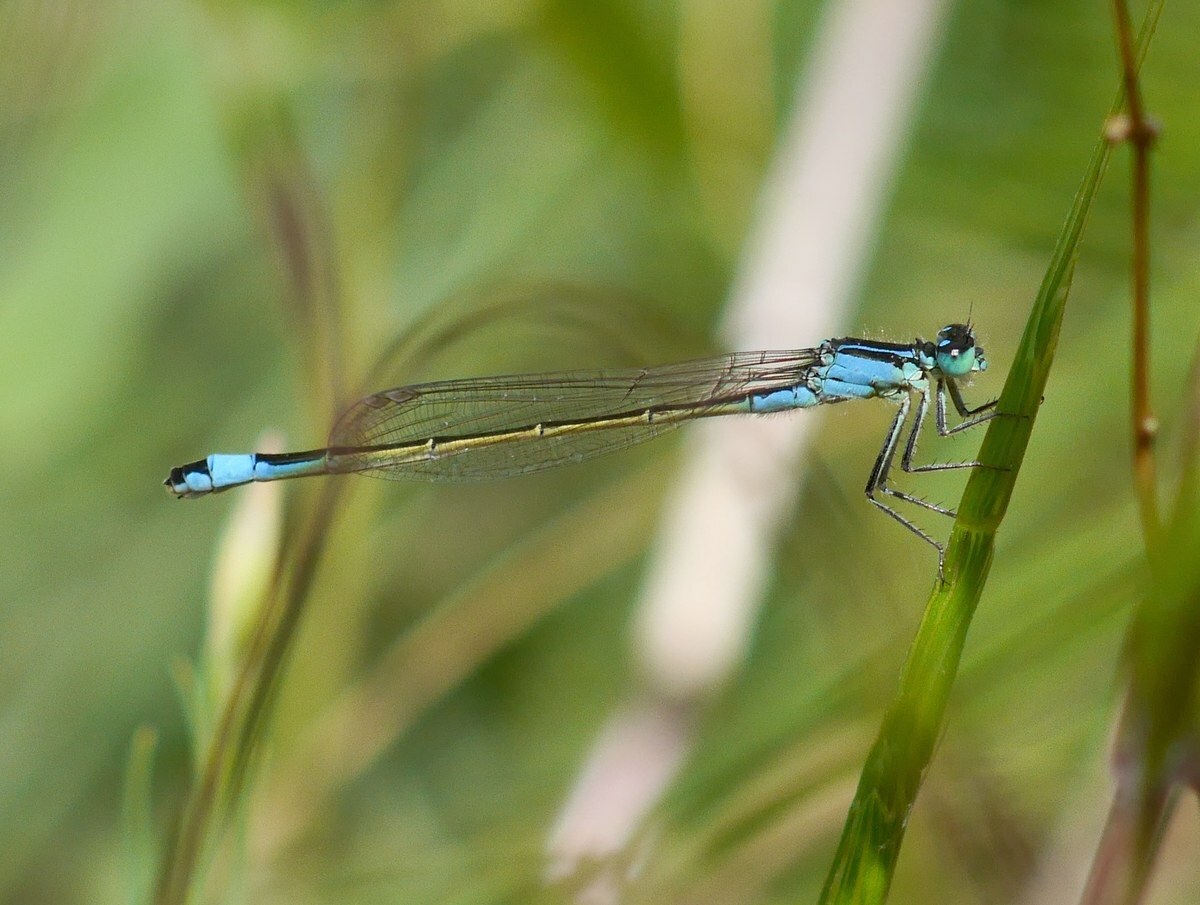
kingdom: Animalia
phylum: Arthropoda
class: Insecta
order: Odonata
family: Coenagrionidae
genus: Ischnura
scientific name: Ischnura elegans
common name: Blue-tailed damselfly
